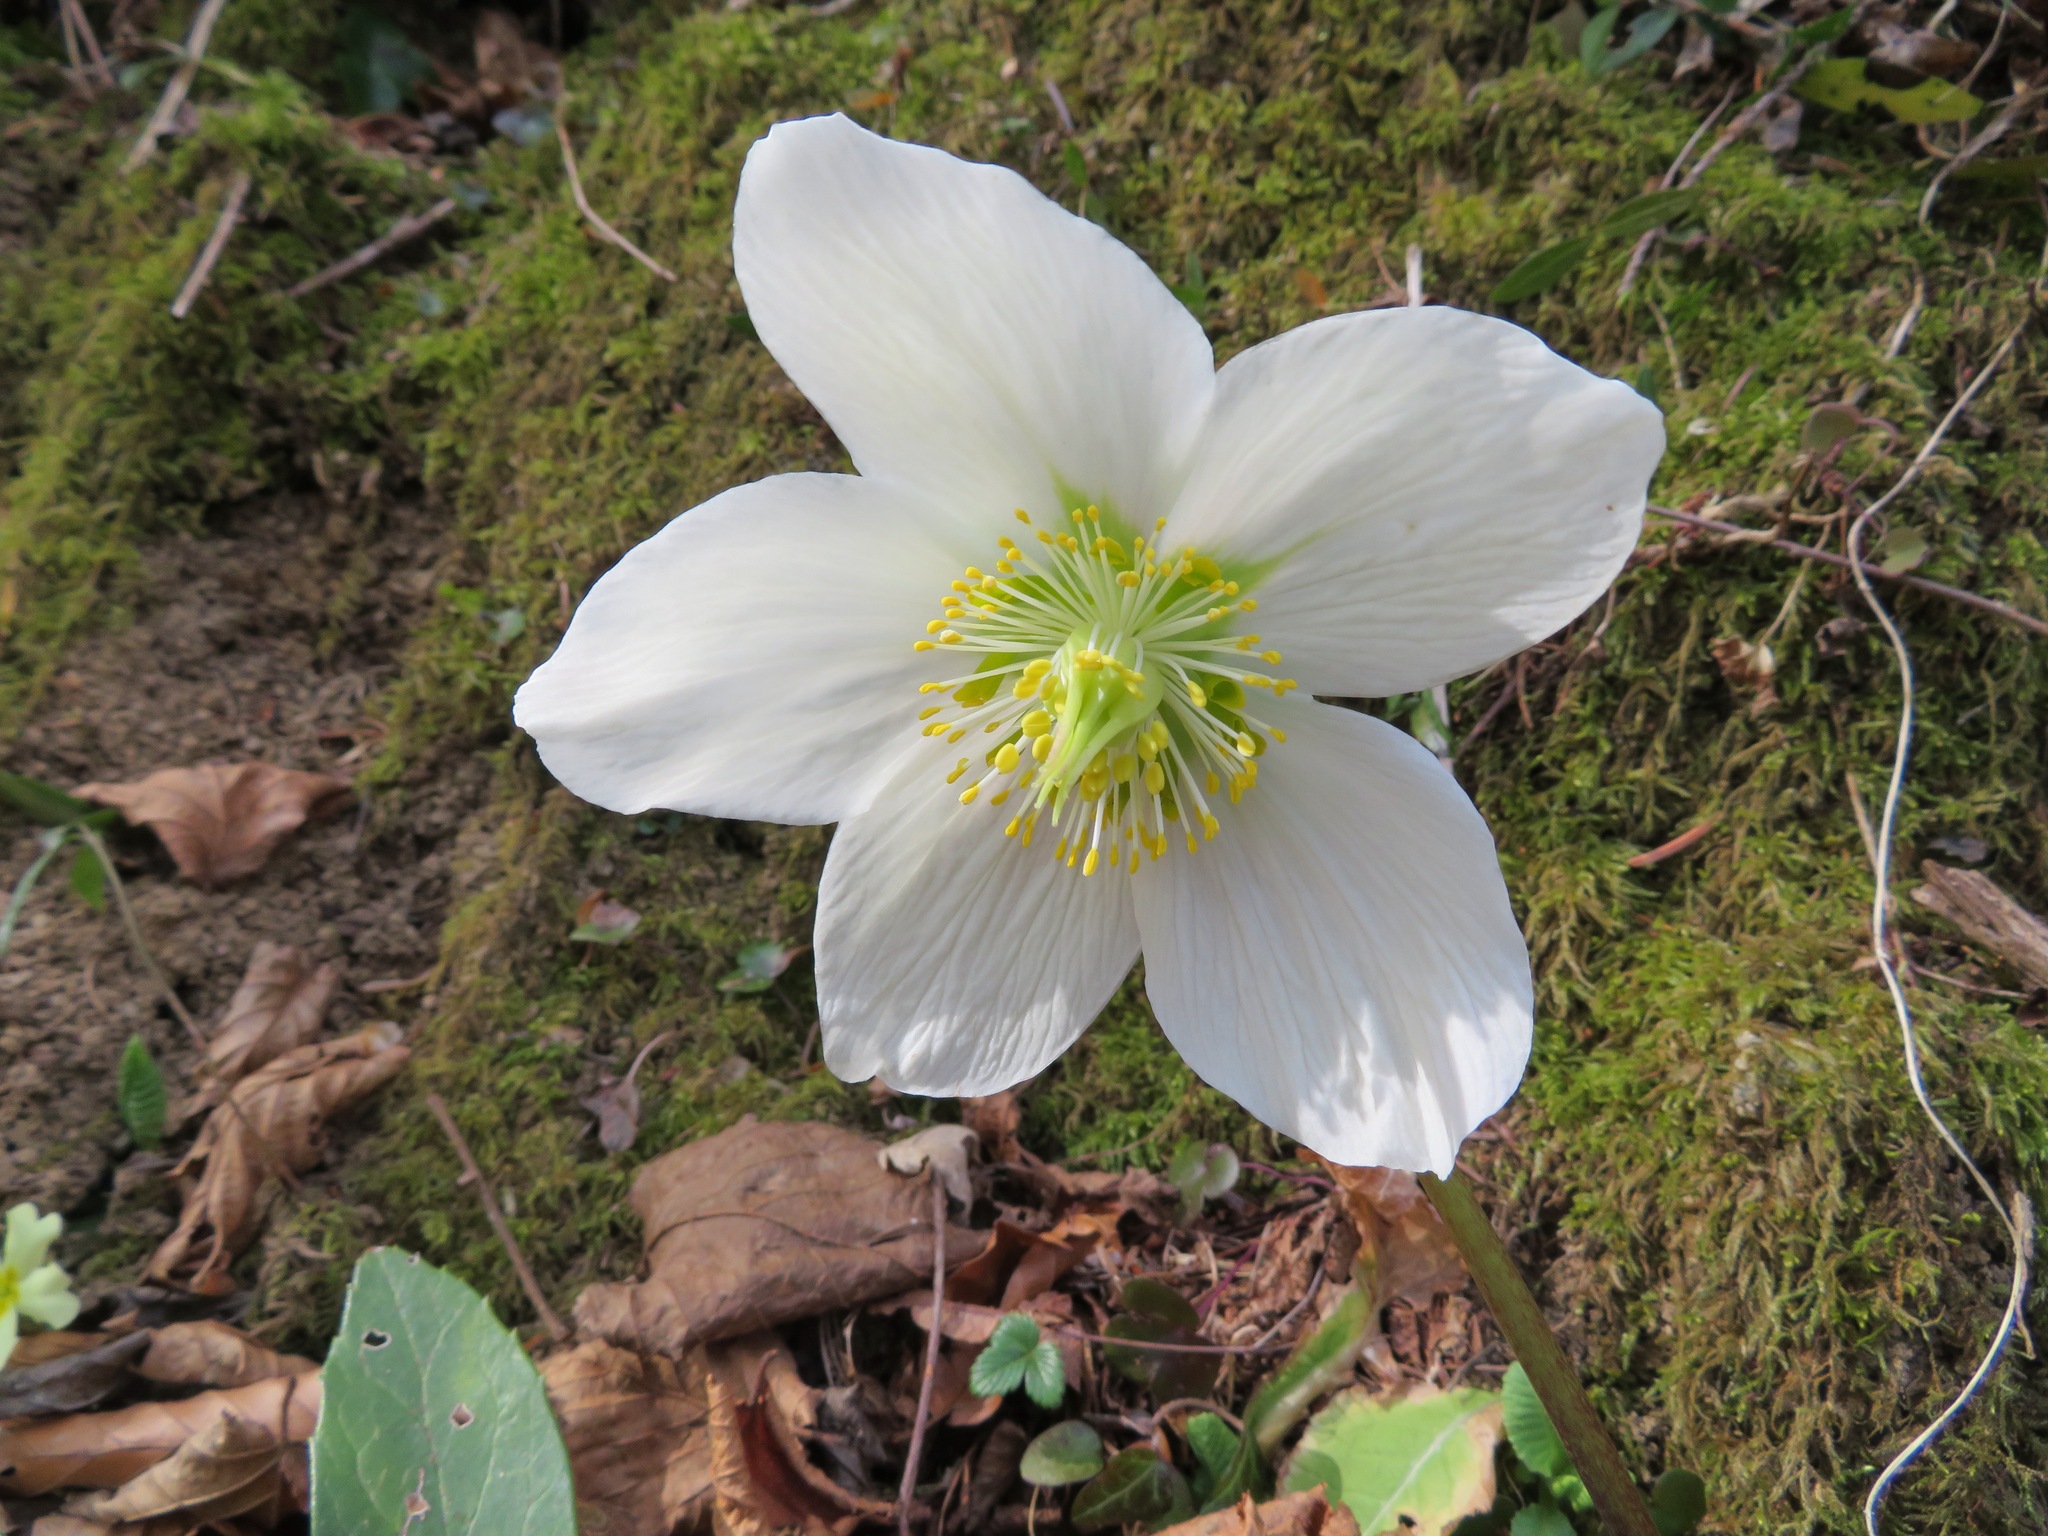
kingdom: Plantae
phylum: Tracheophyta
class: Magnoliopsida
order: Ranunculales
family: Ranunculaceae
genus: Helleborus
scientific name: Helleborus niger
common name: Black hellebore
